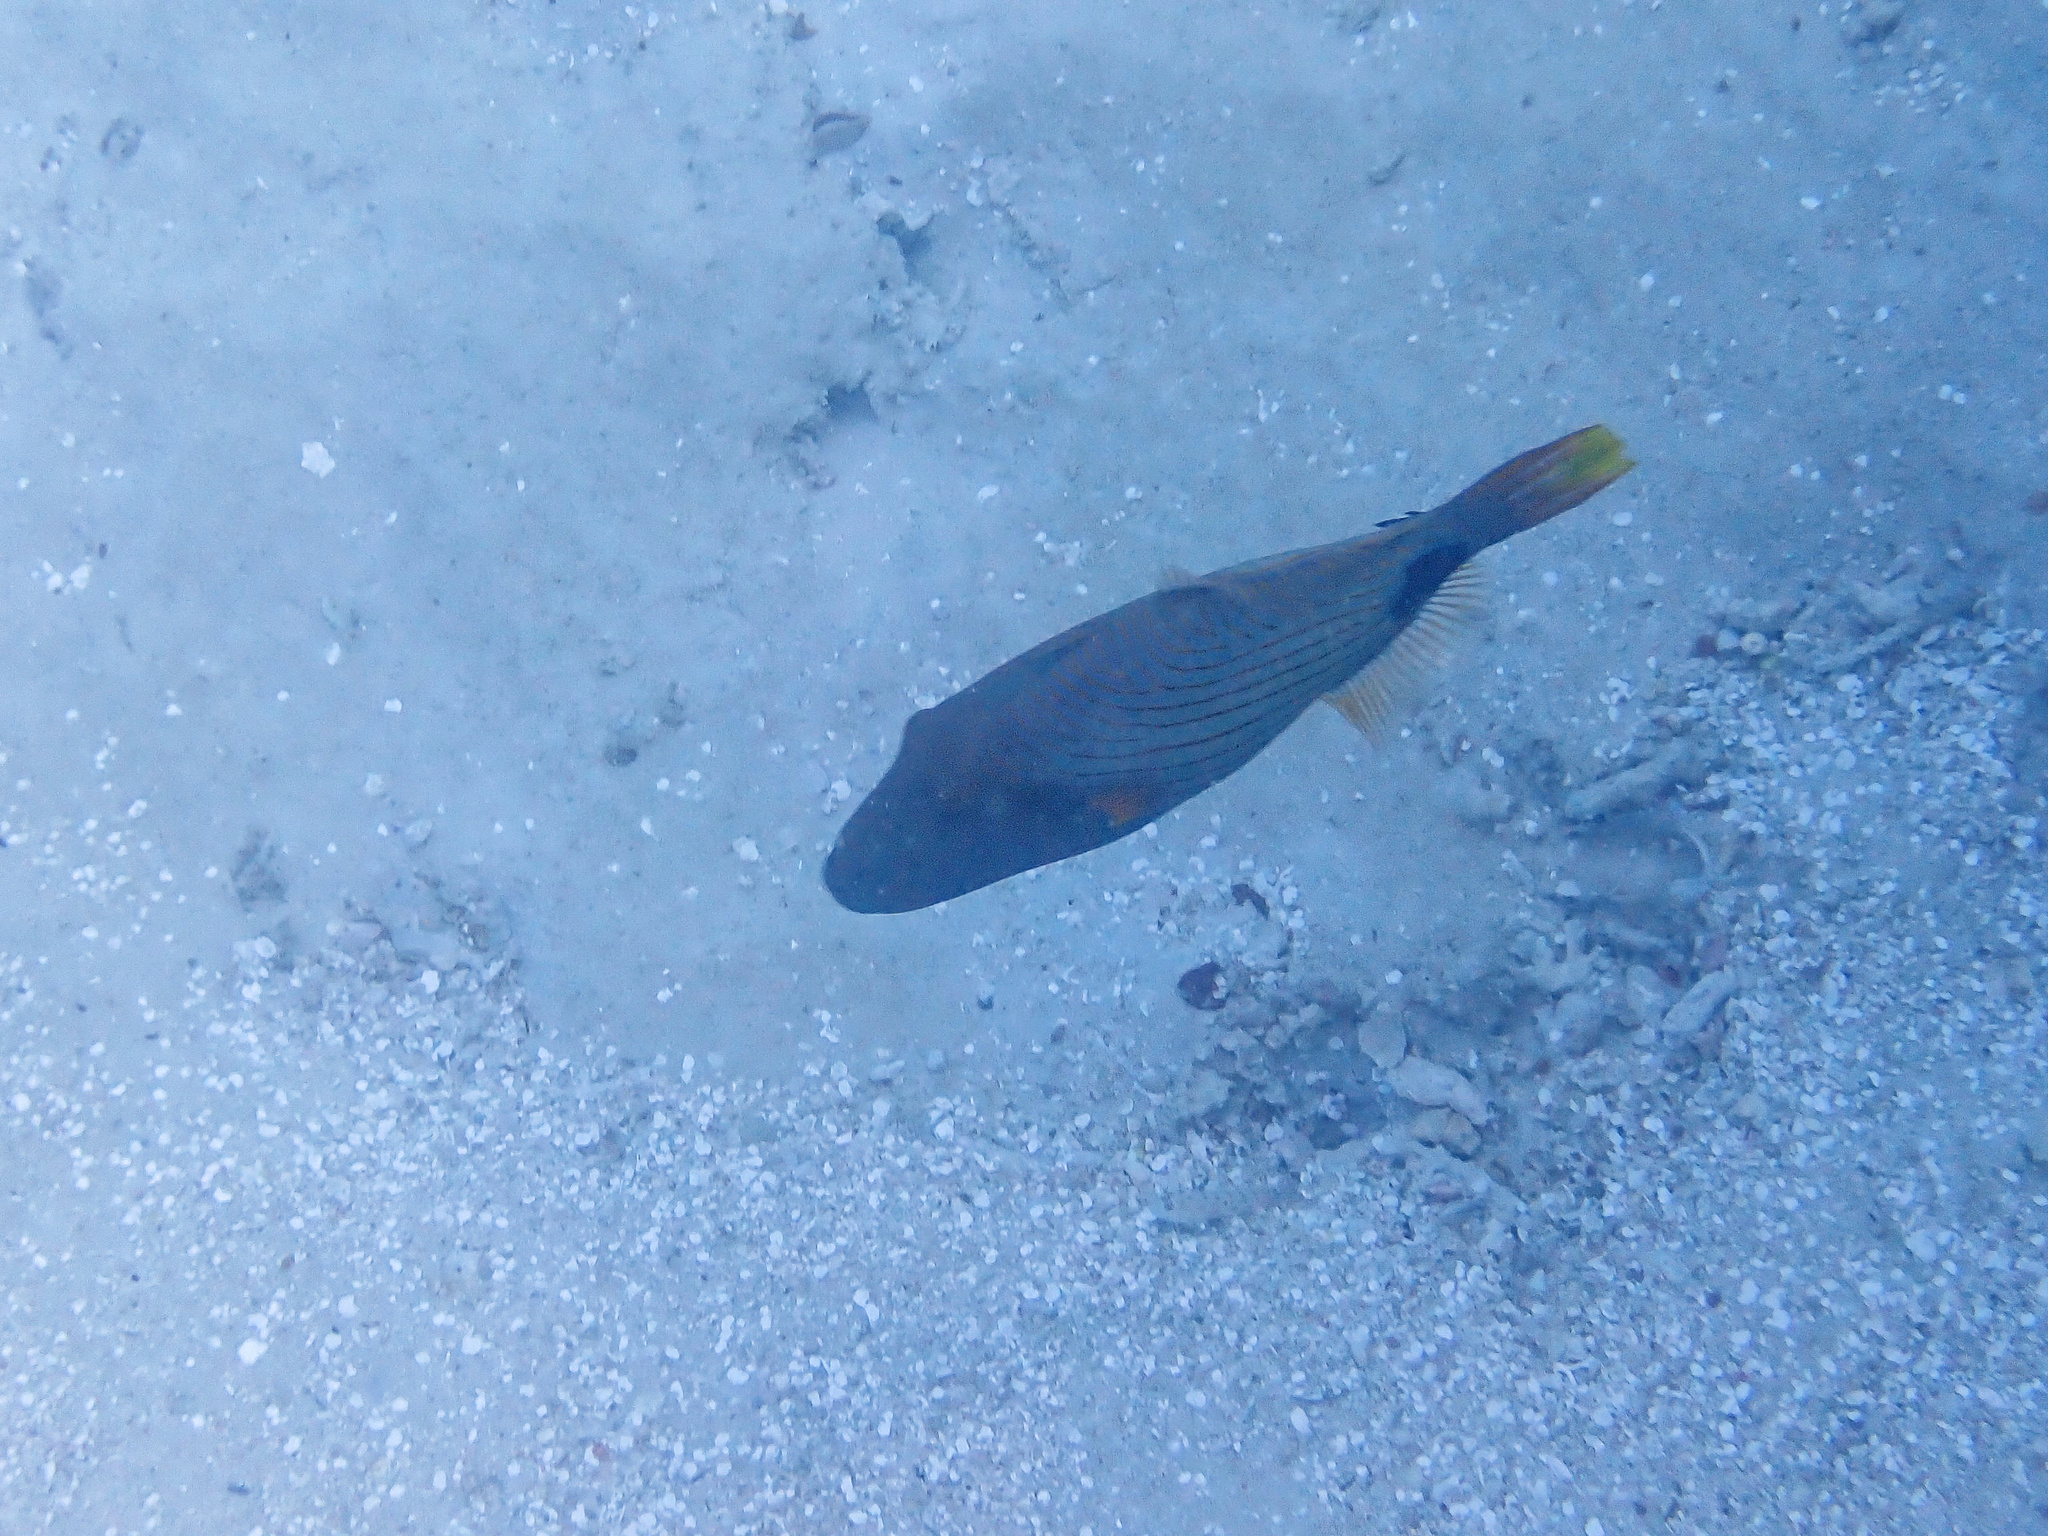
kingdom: Animalia
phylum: Chordata
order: Tetraodontiformes
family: Balistidae
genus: Balistapus
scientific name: Balistapus undulatus
